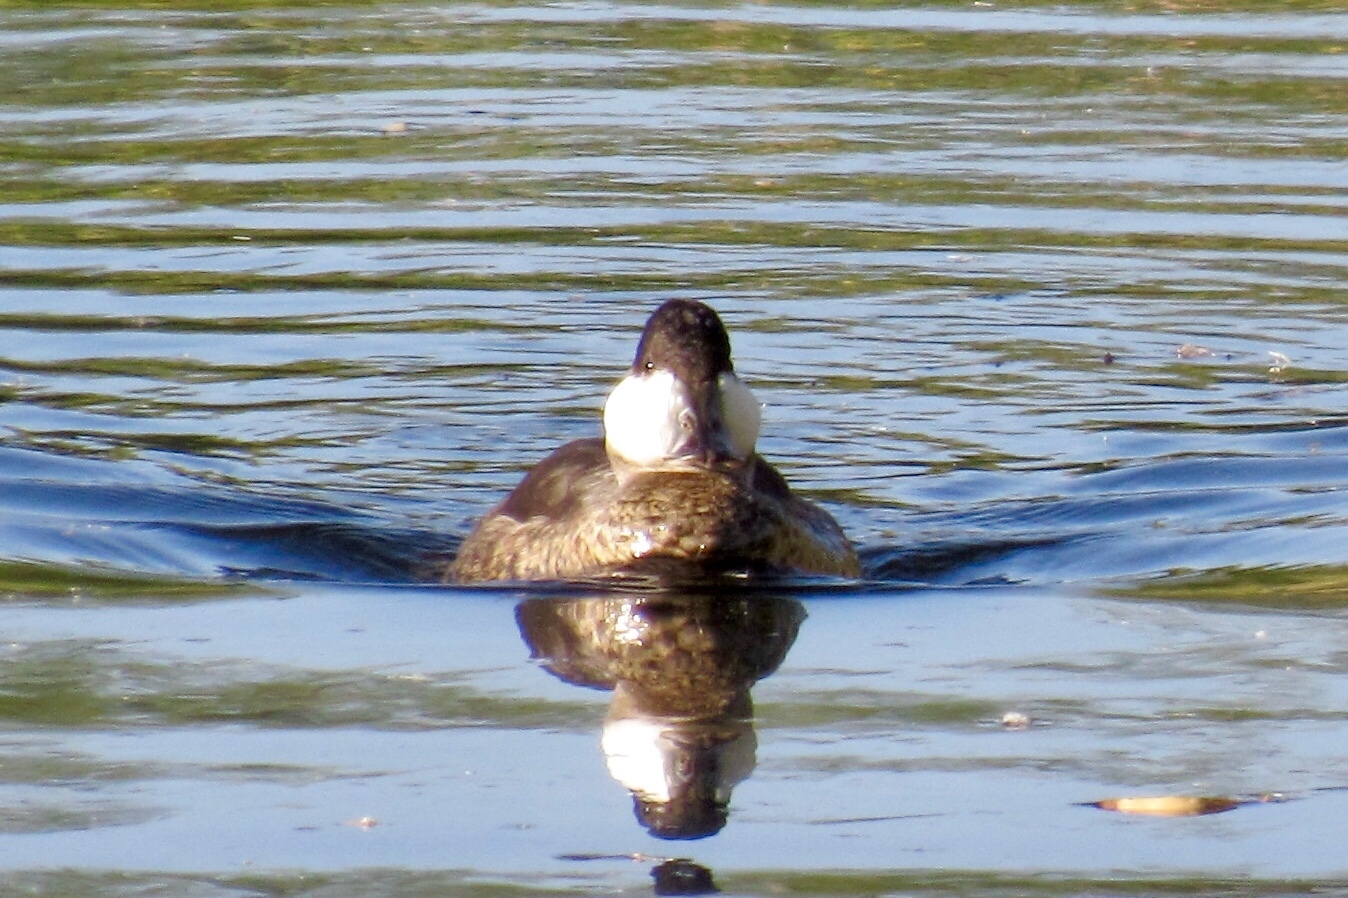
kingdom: Animalia
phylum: Chordata
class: Aves
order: Anseriformes
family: Anatidae
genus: Oxyura
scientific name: Oxyura jamaicensis
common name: Ruddy duck
